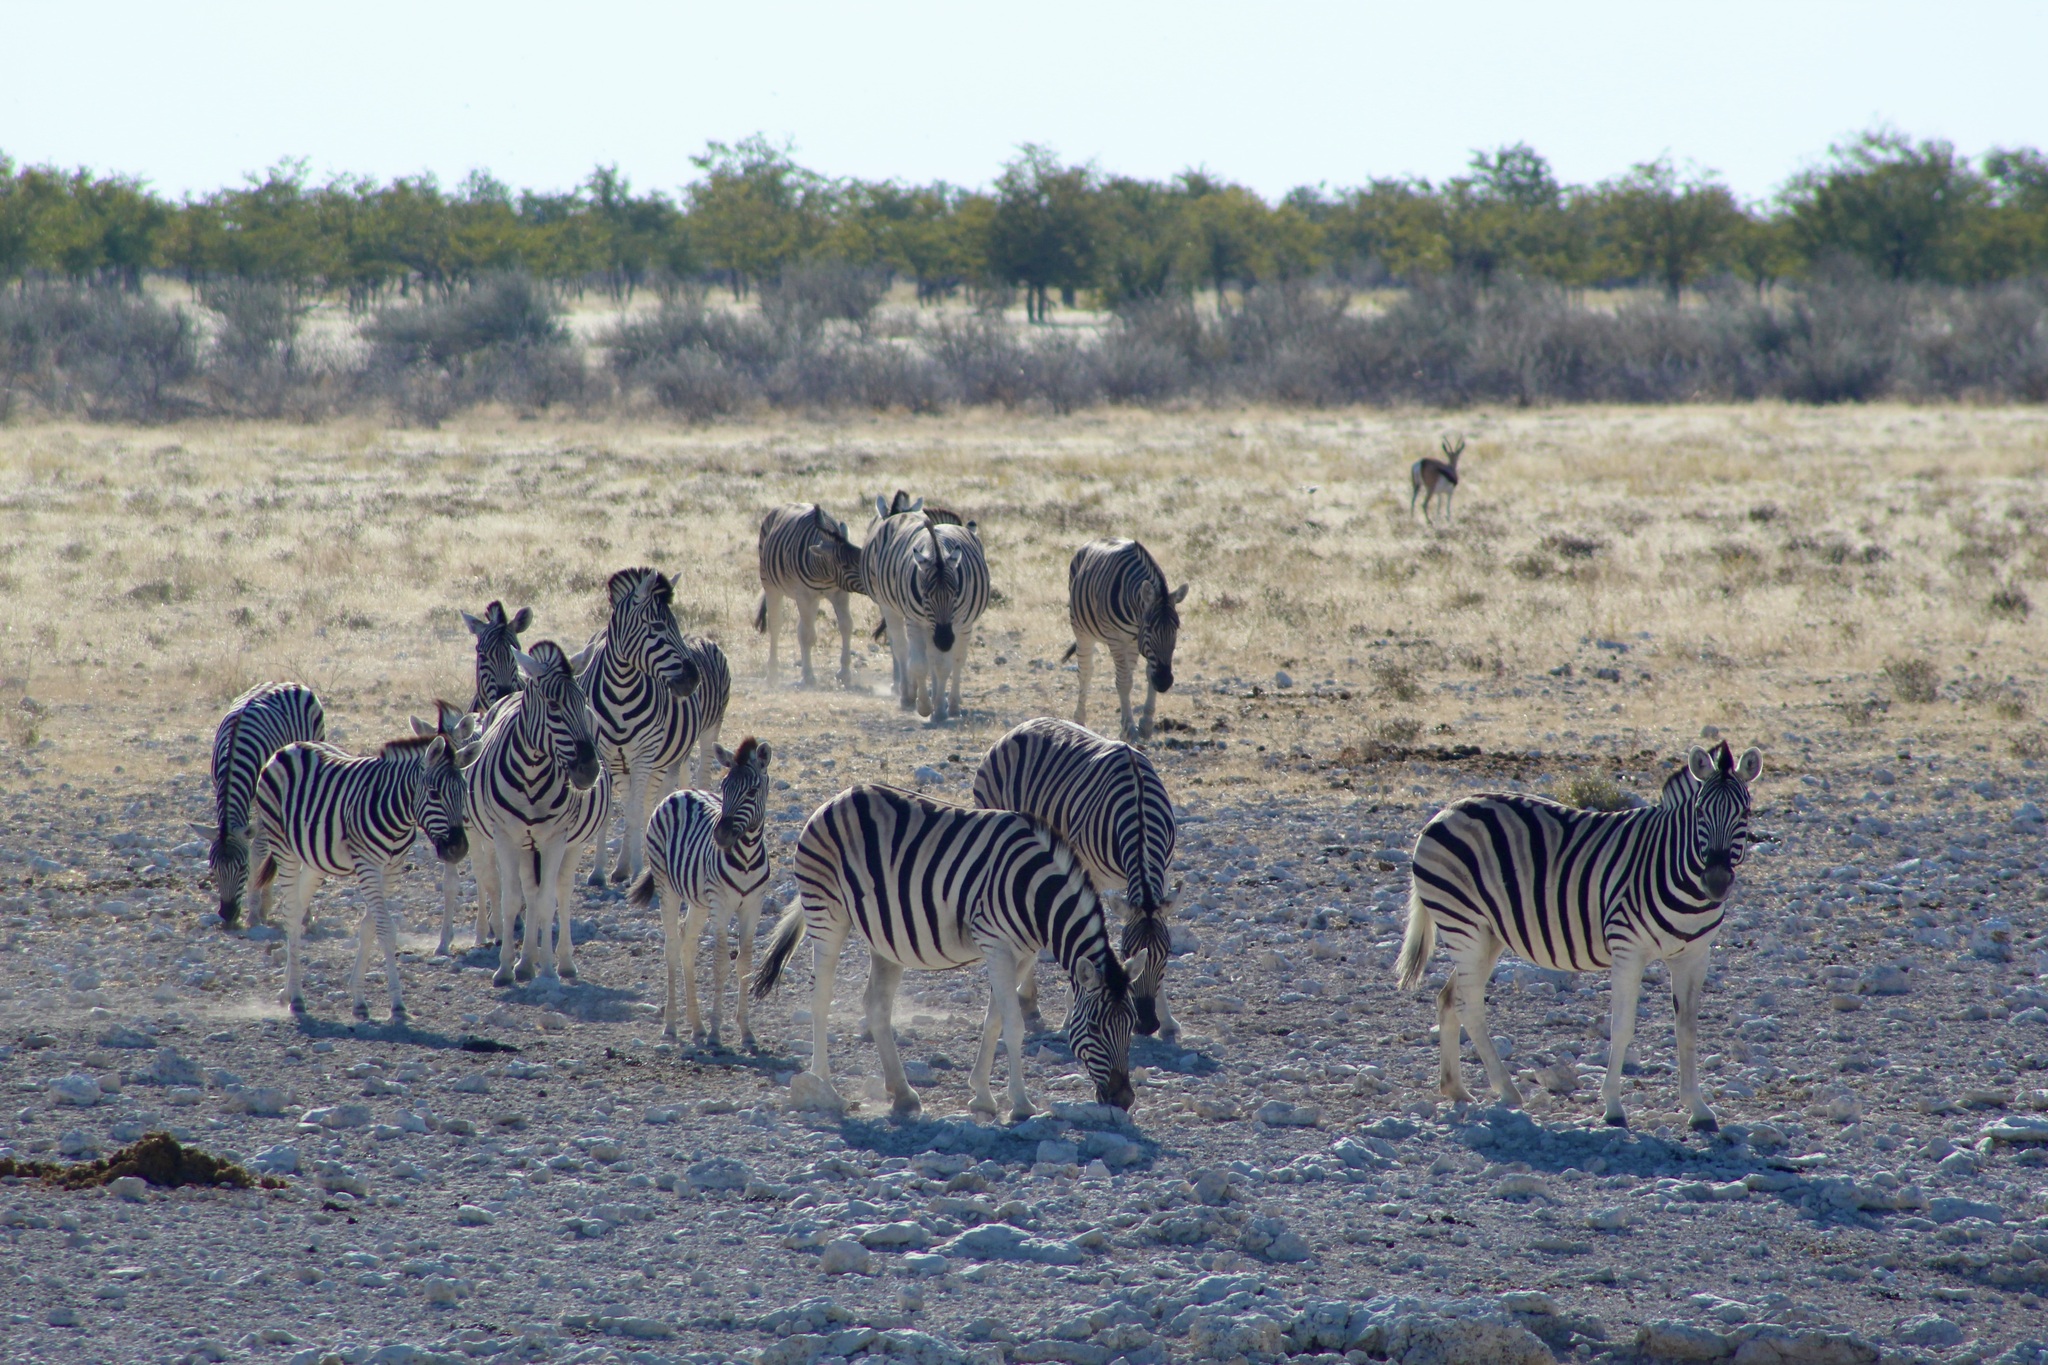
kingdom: Animalia
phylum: Chordata
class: Mammalia
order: Perissodactyla
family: Equidae
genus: Equus
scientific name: Equus quagga
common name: Plains zebra
